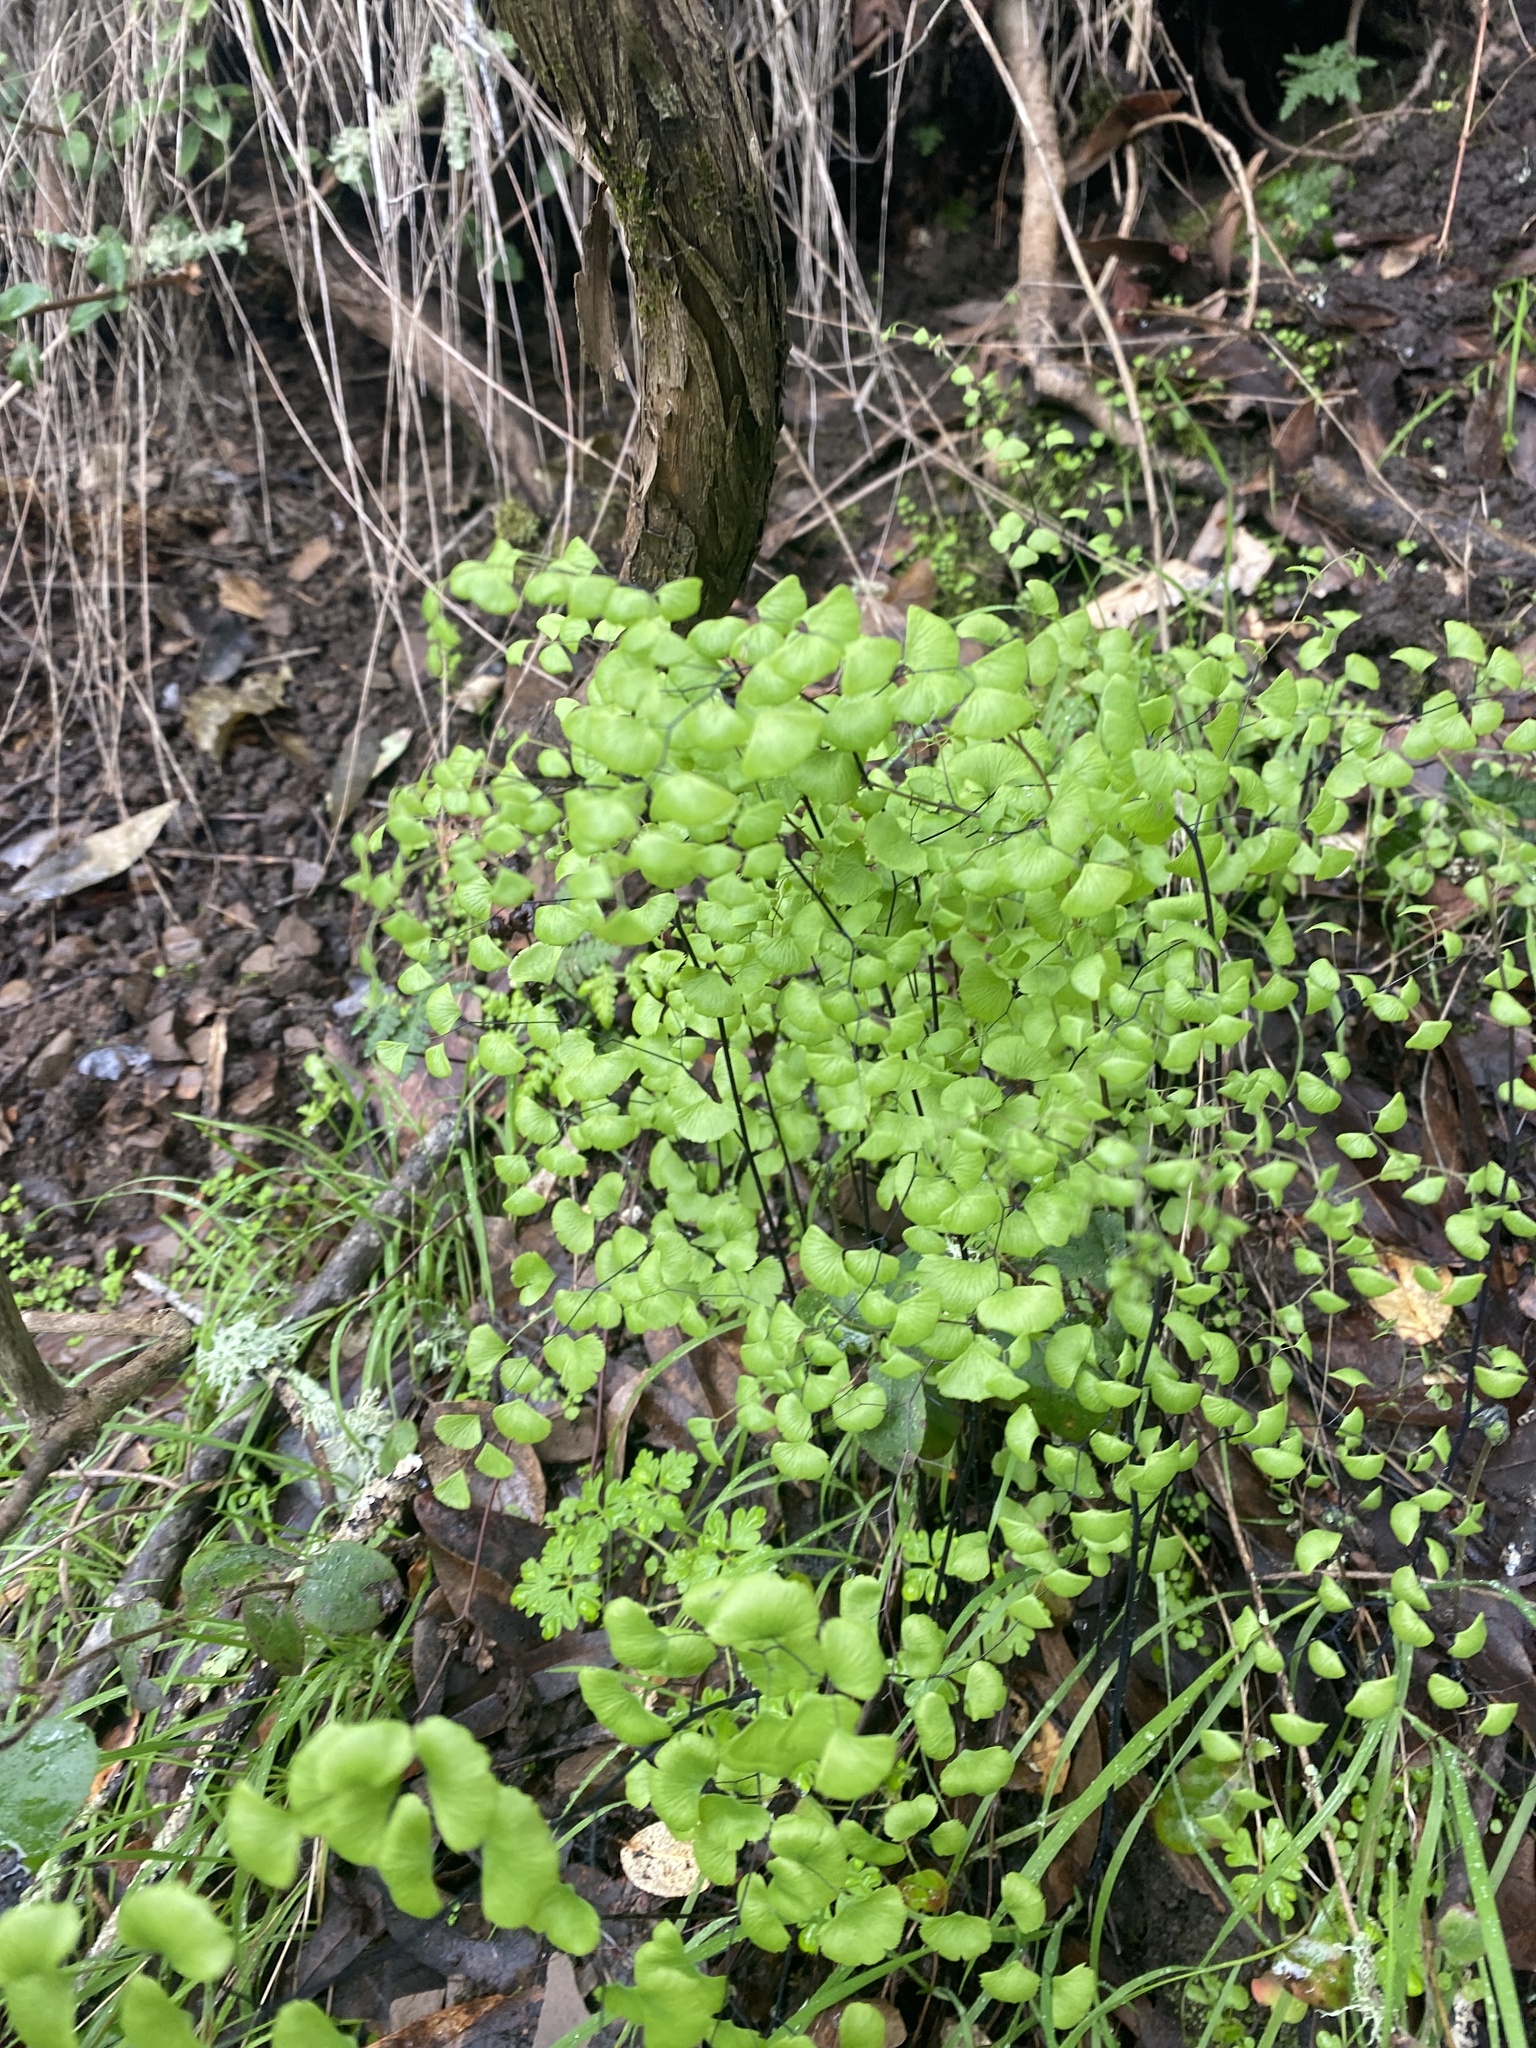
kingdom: Plantae
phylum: Tracheophyta
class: Polypodiopsida
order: Polypodiales
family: Pteridaceae
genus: Adiantum
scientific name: Adiantum jordanii
